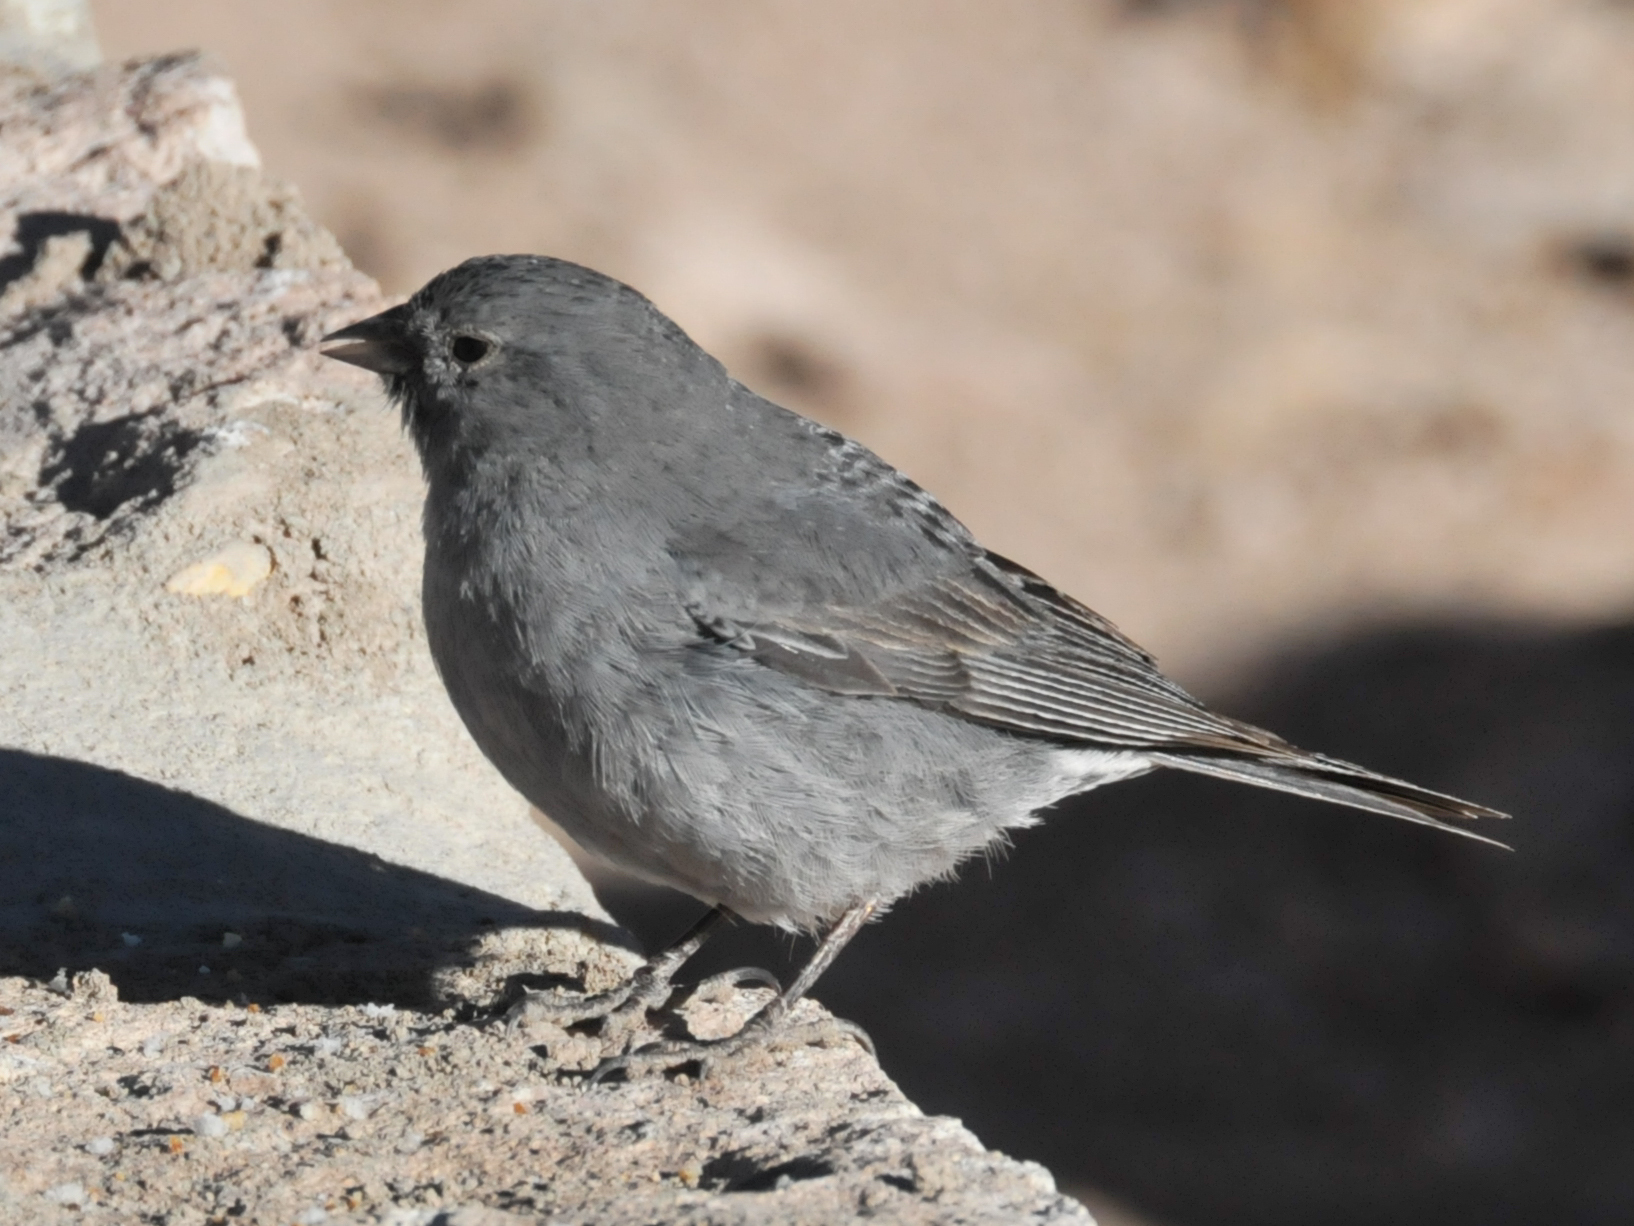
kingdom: Animalia
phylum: Chordata
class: Aves
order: Passeriformes
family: Thraupidae
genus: Geospizopsis
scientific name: Geospizopsis unicolor
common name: Plumbeous sierra-finch
